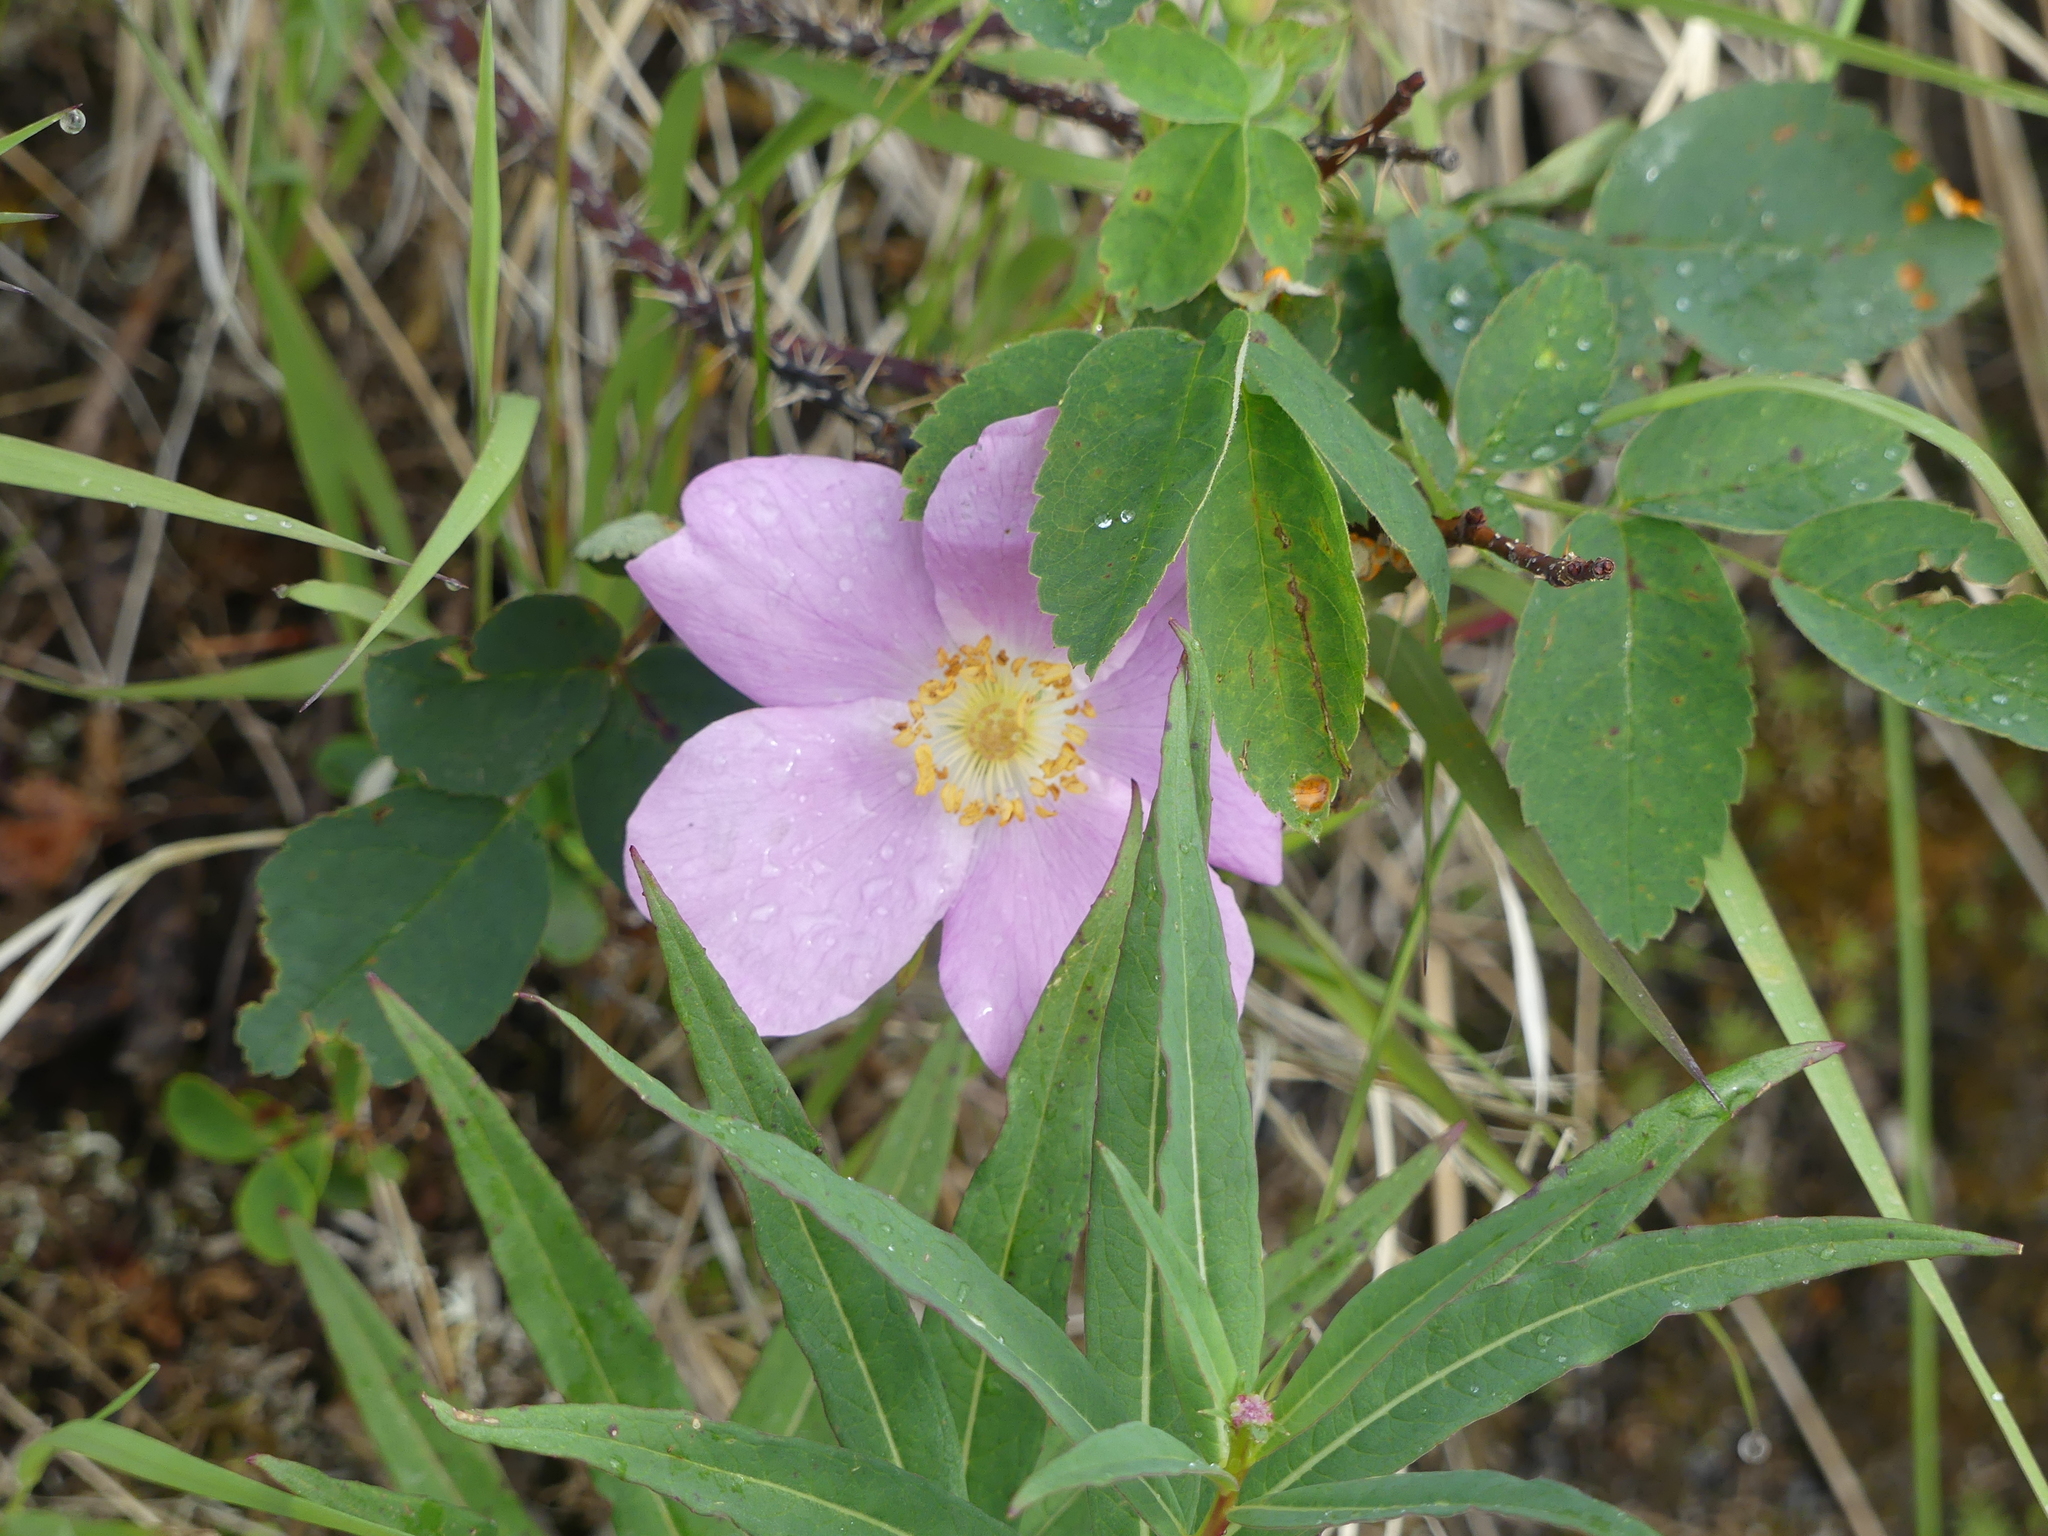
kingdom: Plantae
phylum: Tracheophyta
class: Magnoliopsida
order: Rosales
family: Rosaceae
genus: Rosa
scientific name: Rosa acicularis
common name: Prickly rose
